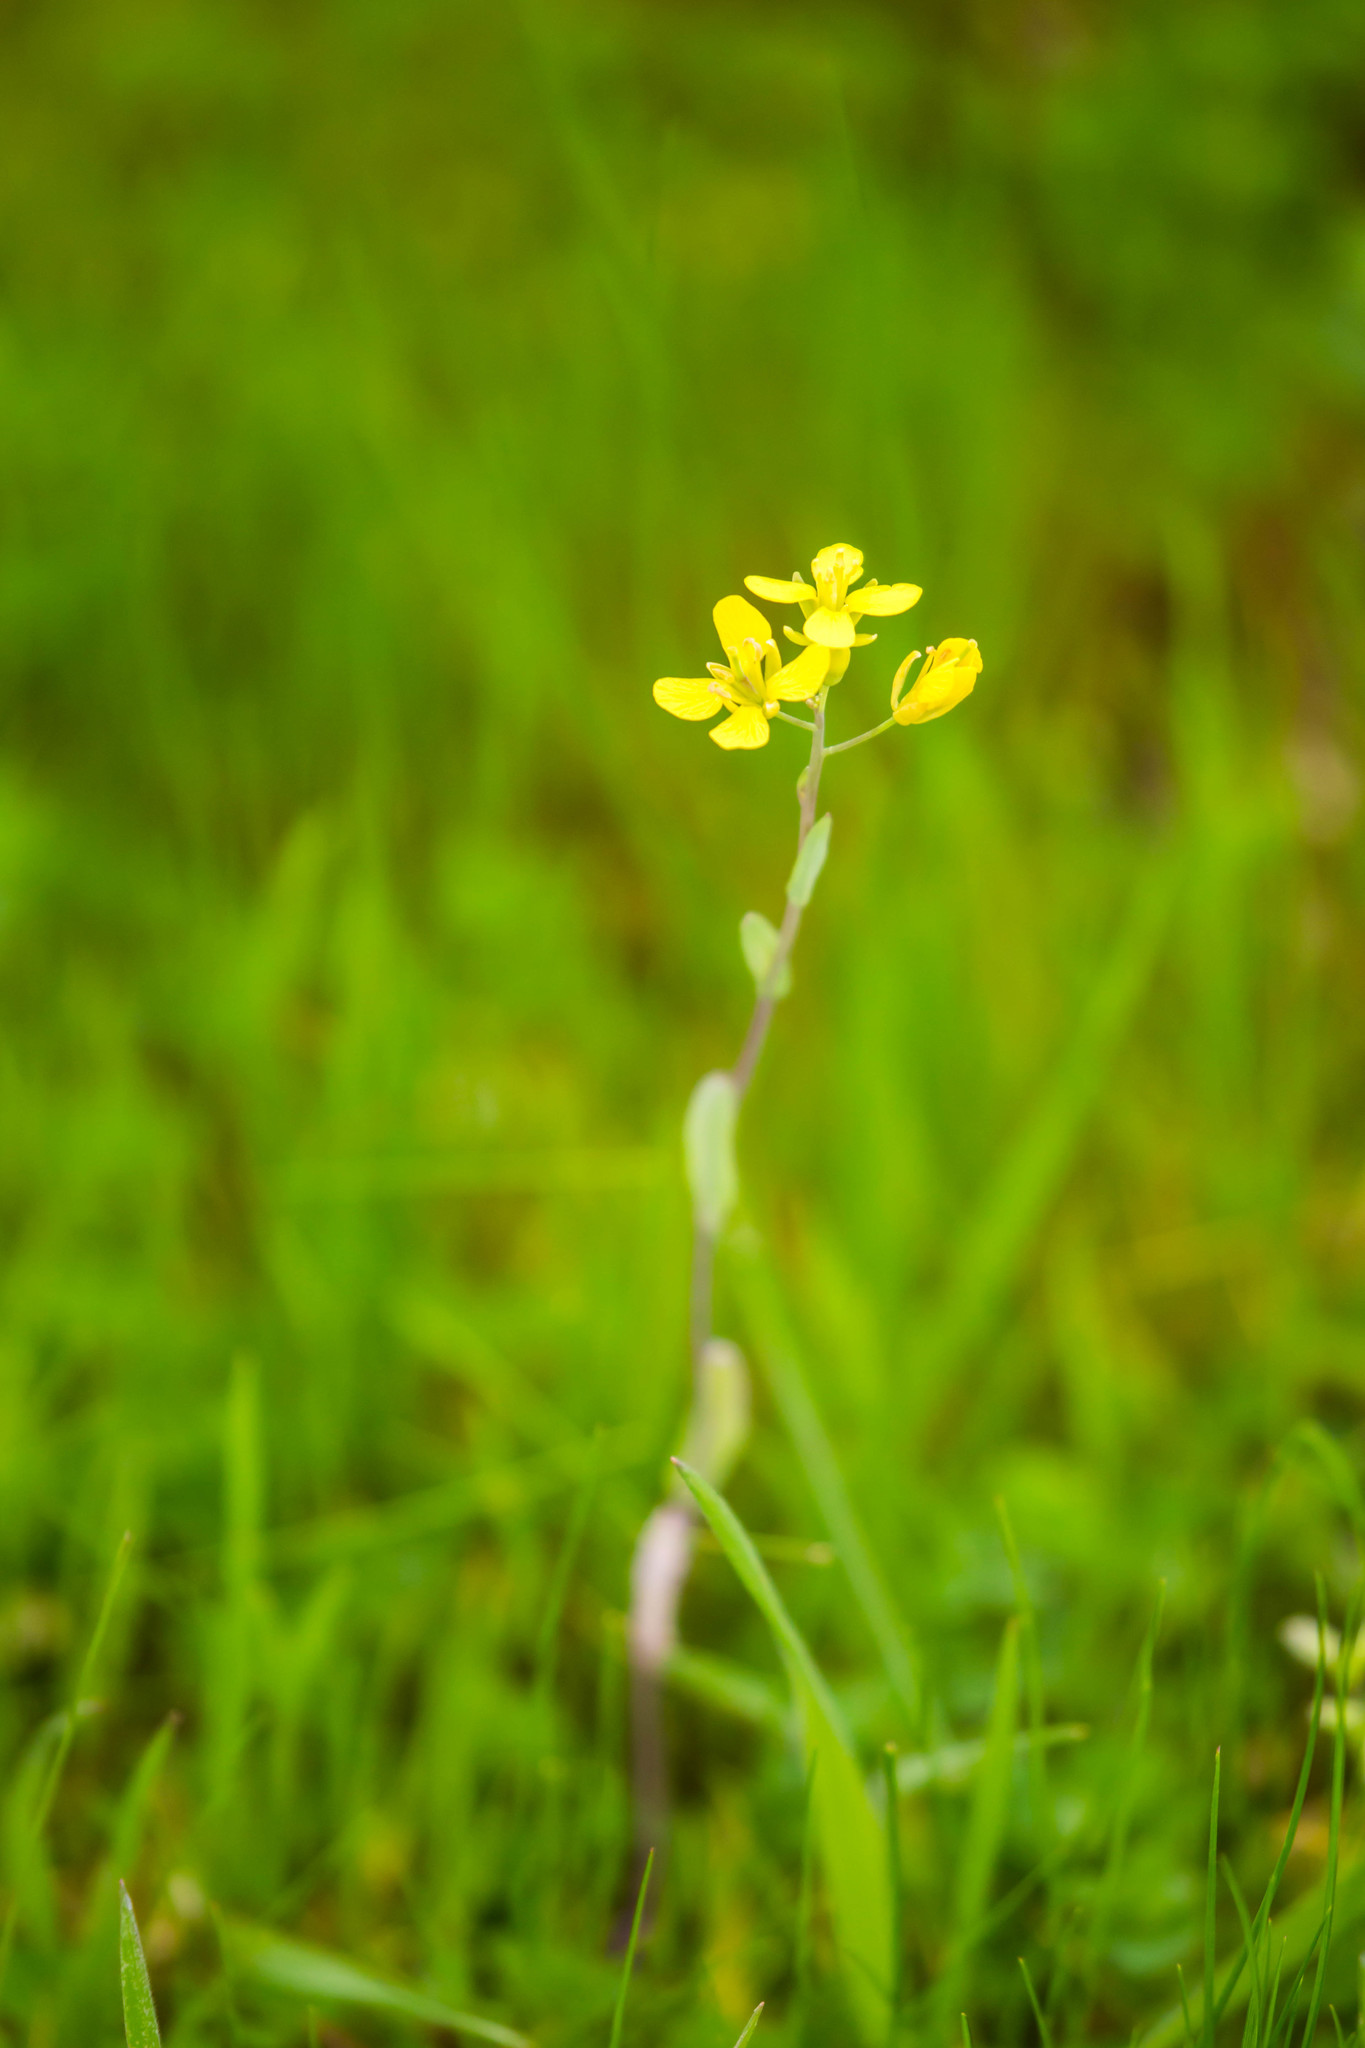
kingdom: Plantae
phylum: Tracheophyta
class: Magnoliopsida
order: Brassicales
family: Brassicaceae
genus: Brassica
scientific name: Brassica rapa
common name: Field mustard
